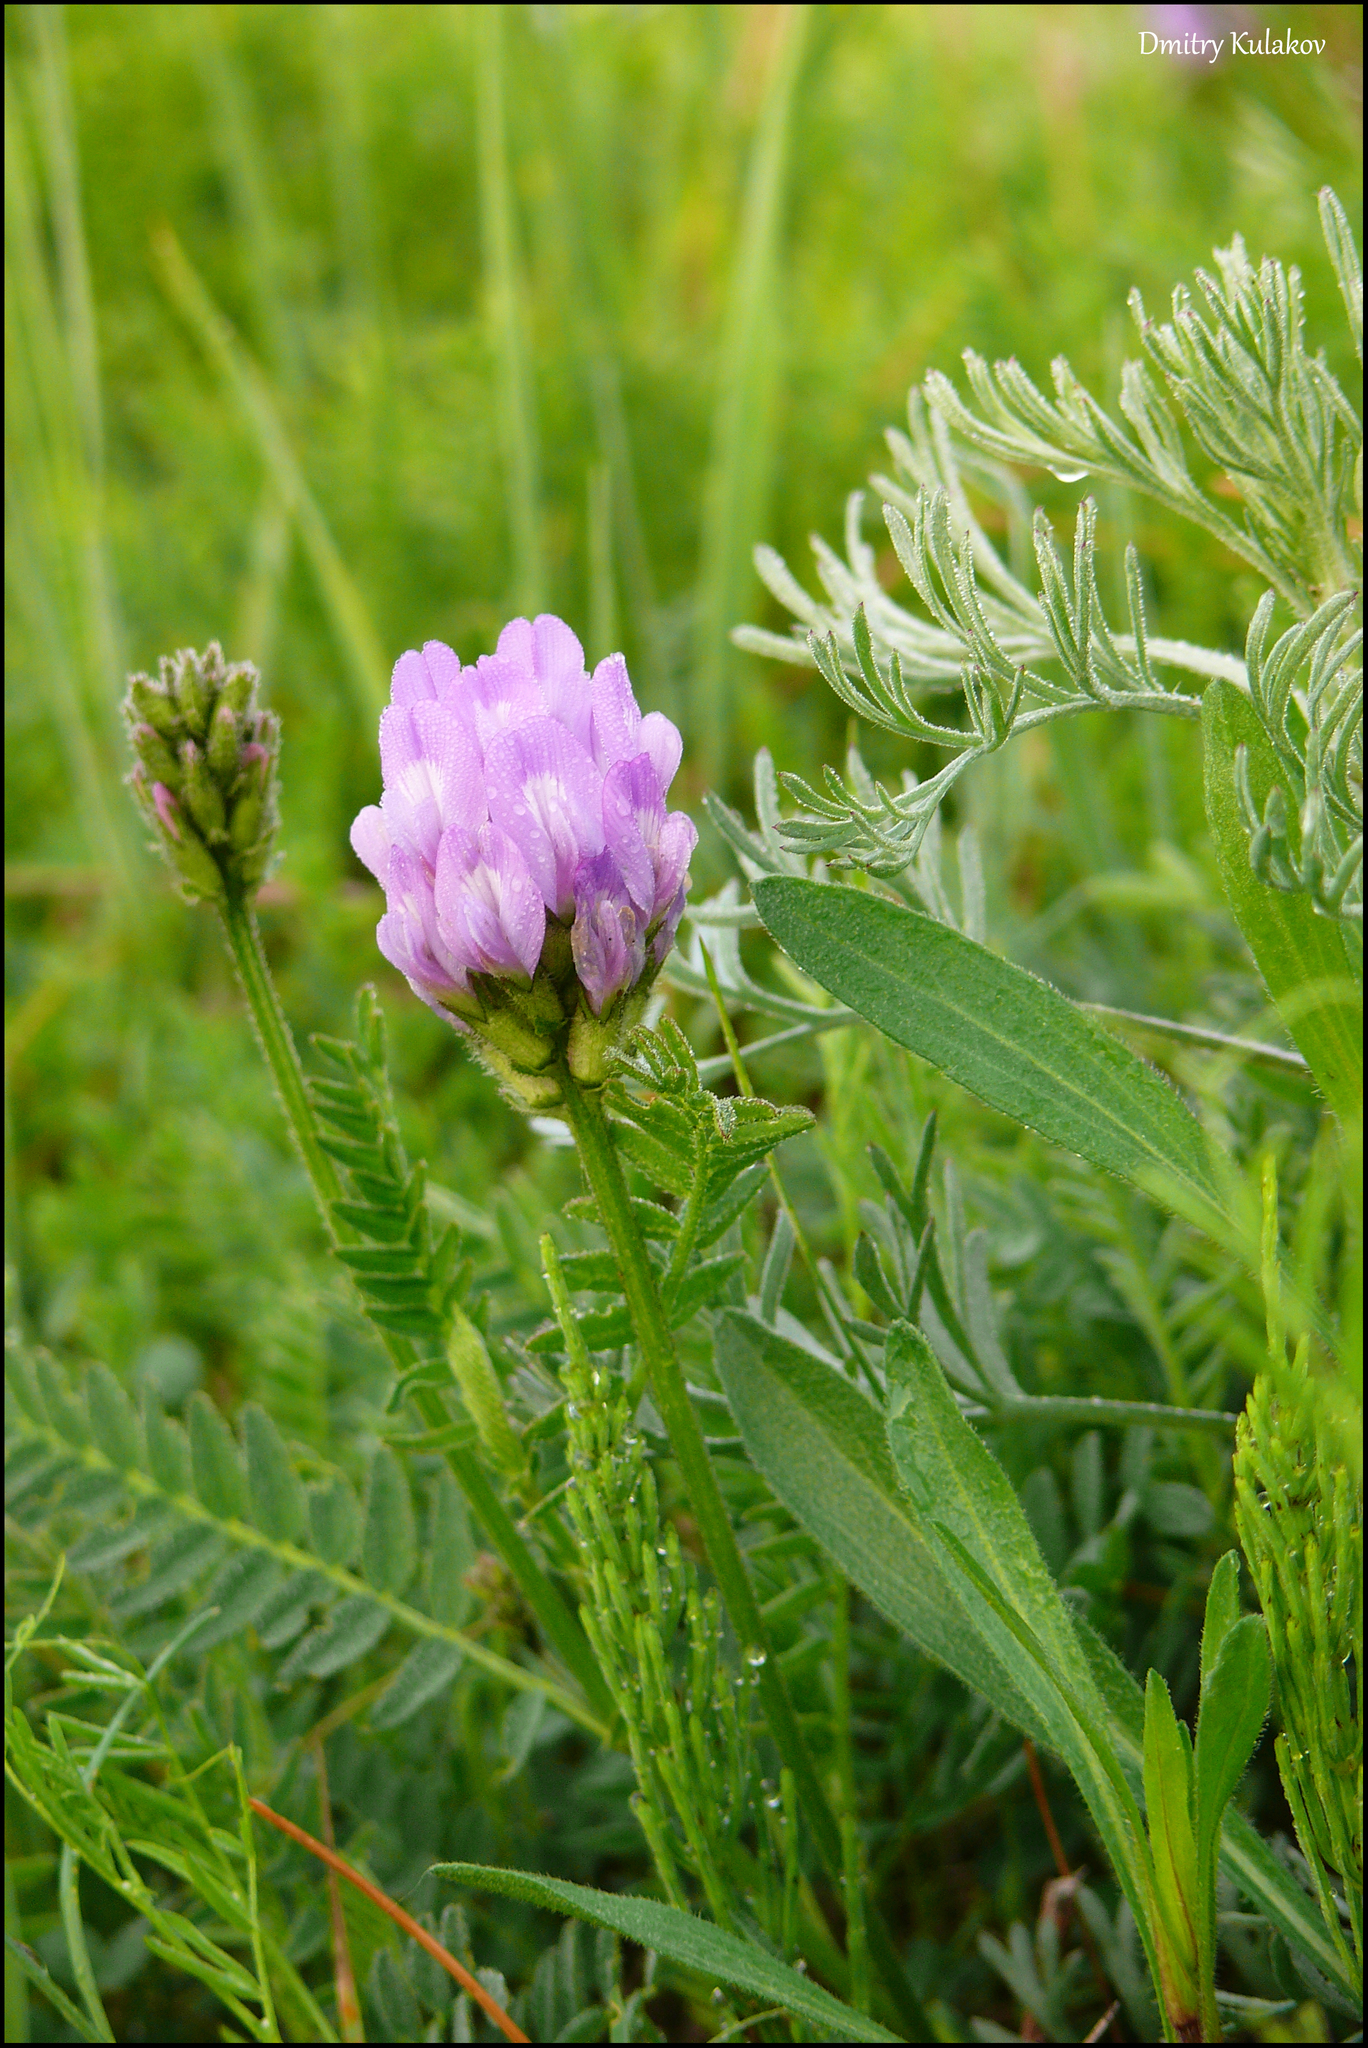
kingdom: Plantae
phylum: Tracheophyta
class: Magnoliopsida
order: Fabales
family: Fabaceae
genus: Astragalus
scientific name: Astragalus danicus
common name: Purple milk-vetch
